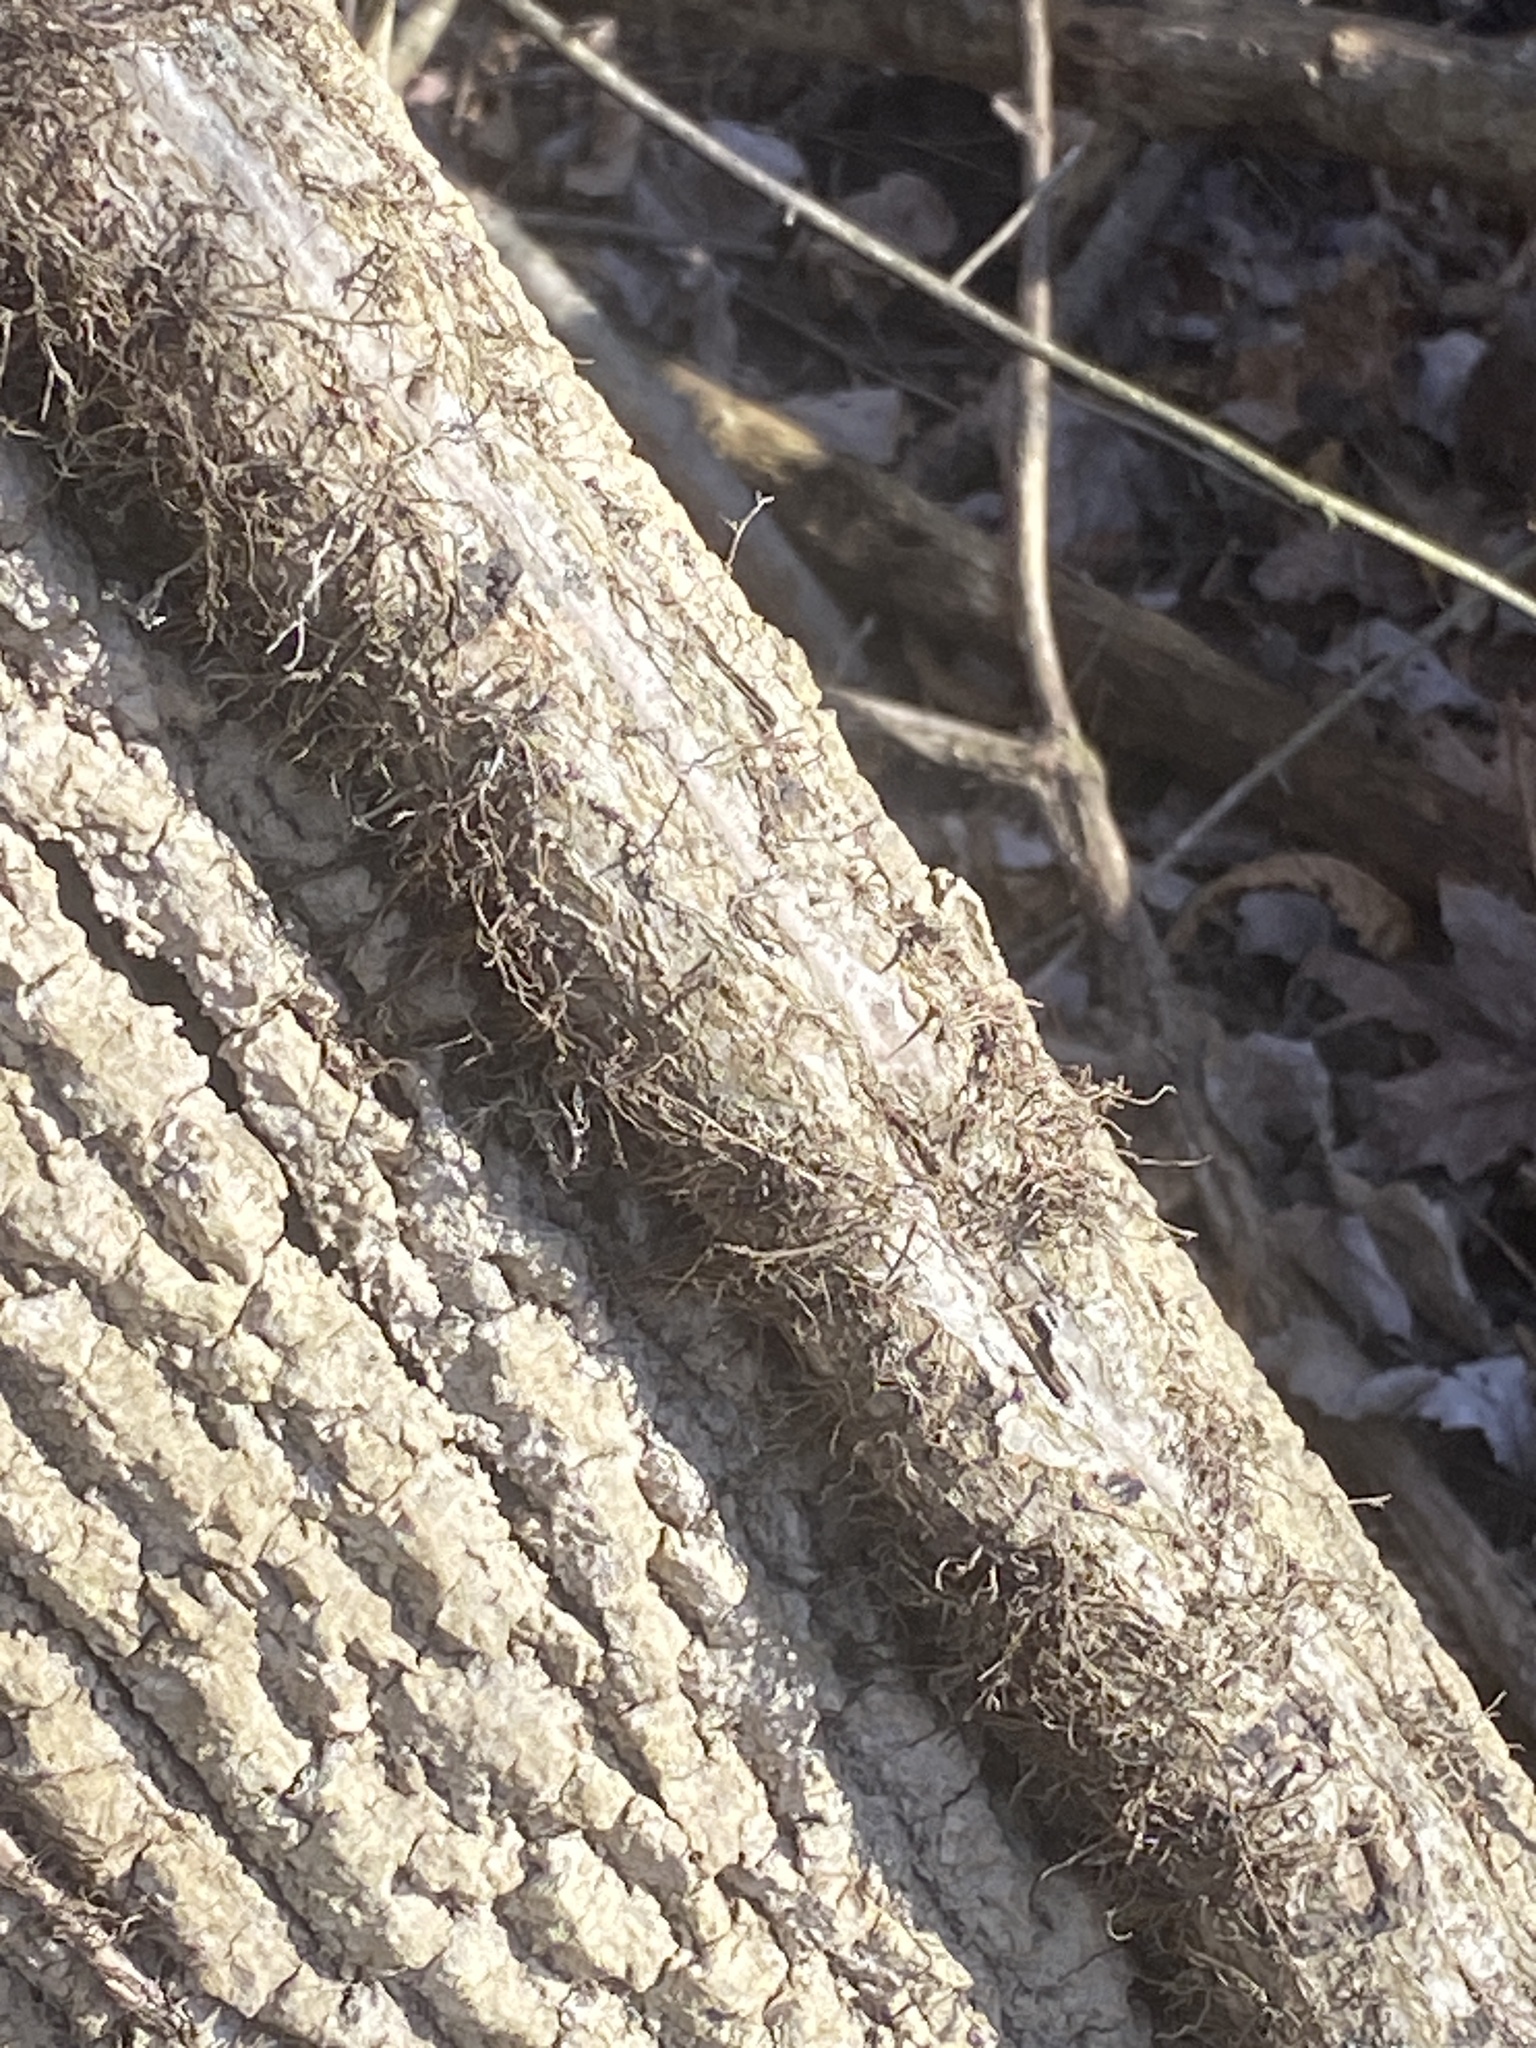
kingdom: Plantae
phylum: Tracheophyta
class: Magnoliopsida
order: Sapindales
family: Anacardiaceae
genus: Toxicodendron
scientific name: Toxicodendron radicans
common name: Poison ivy
